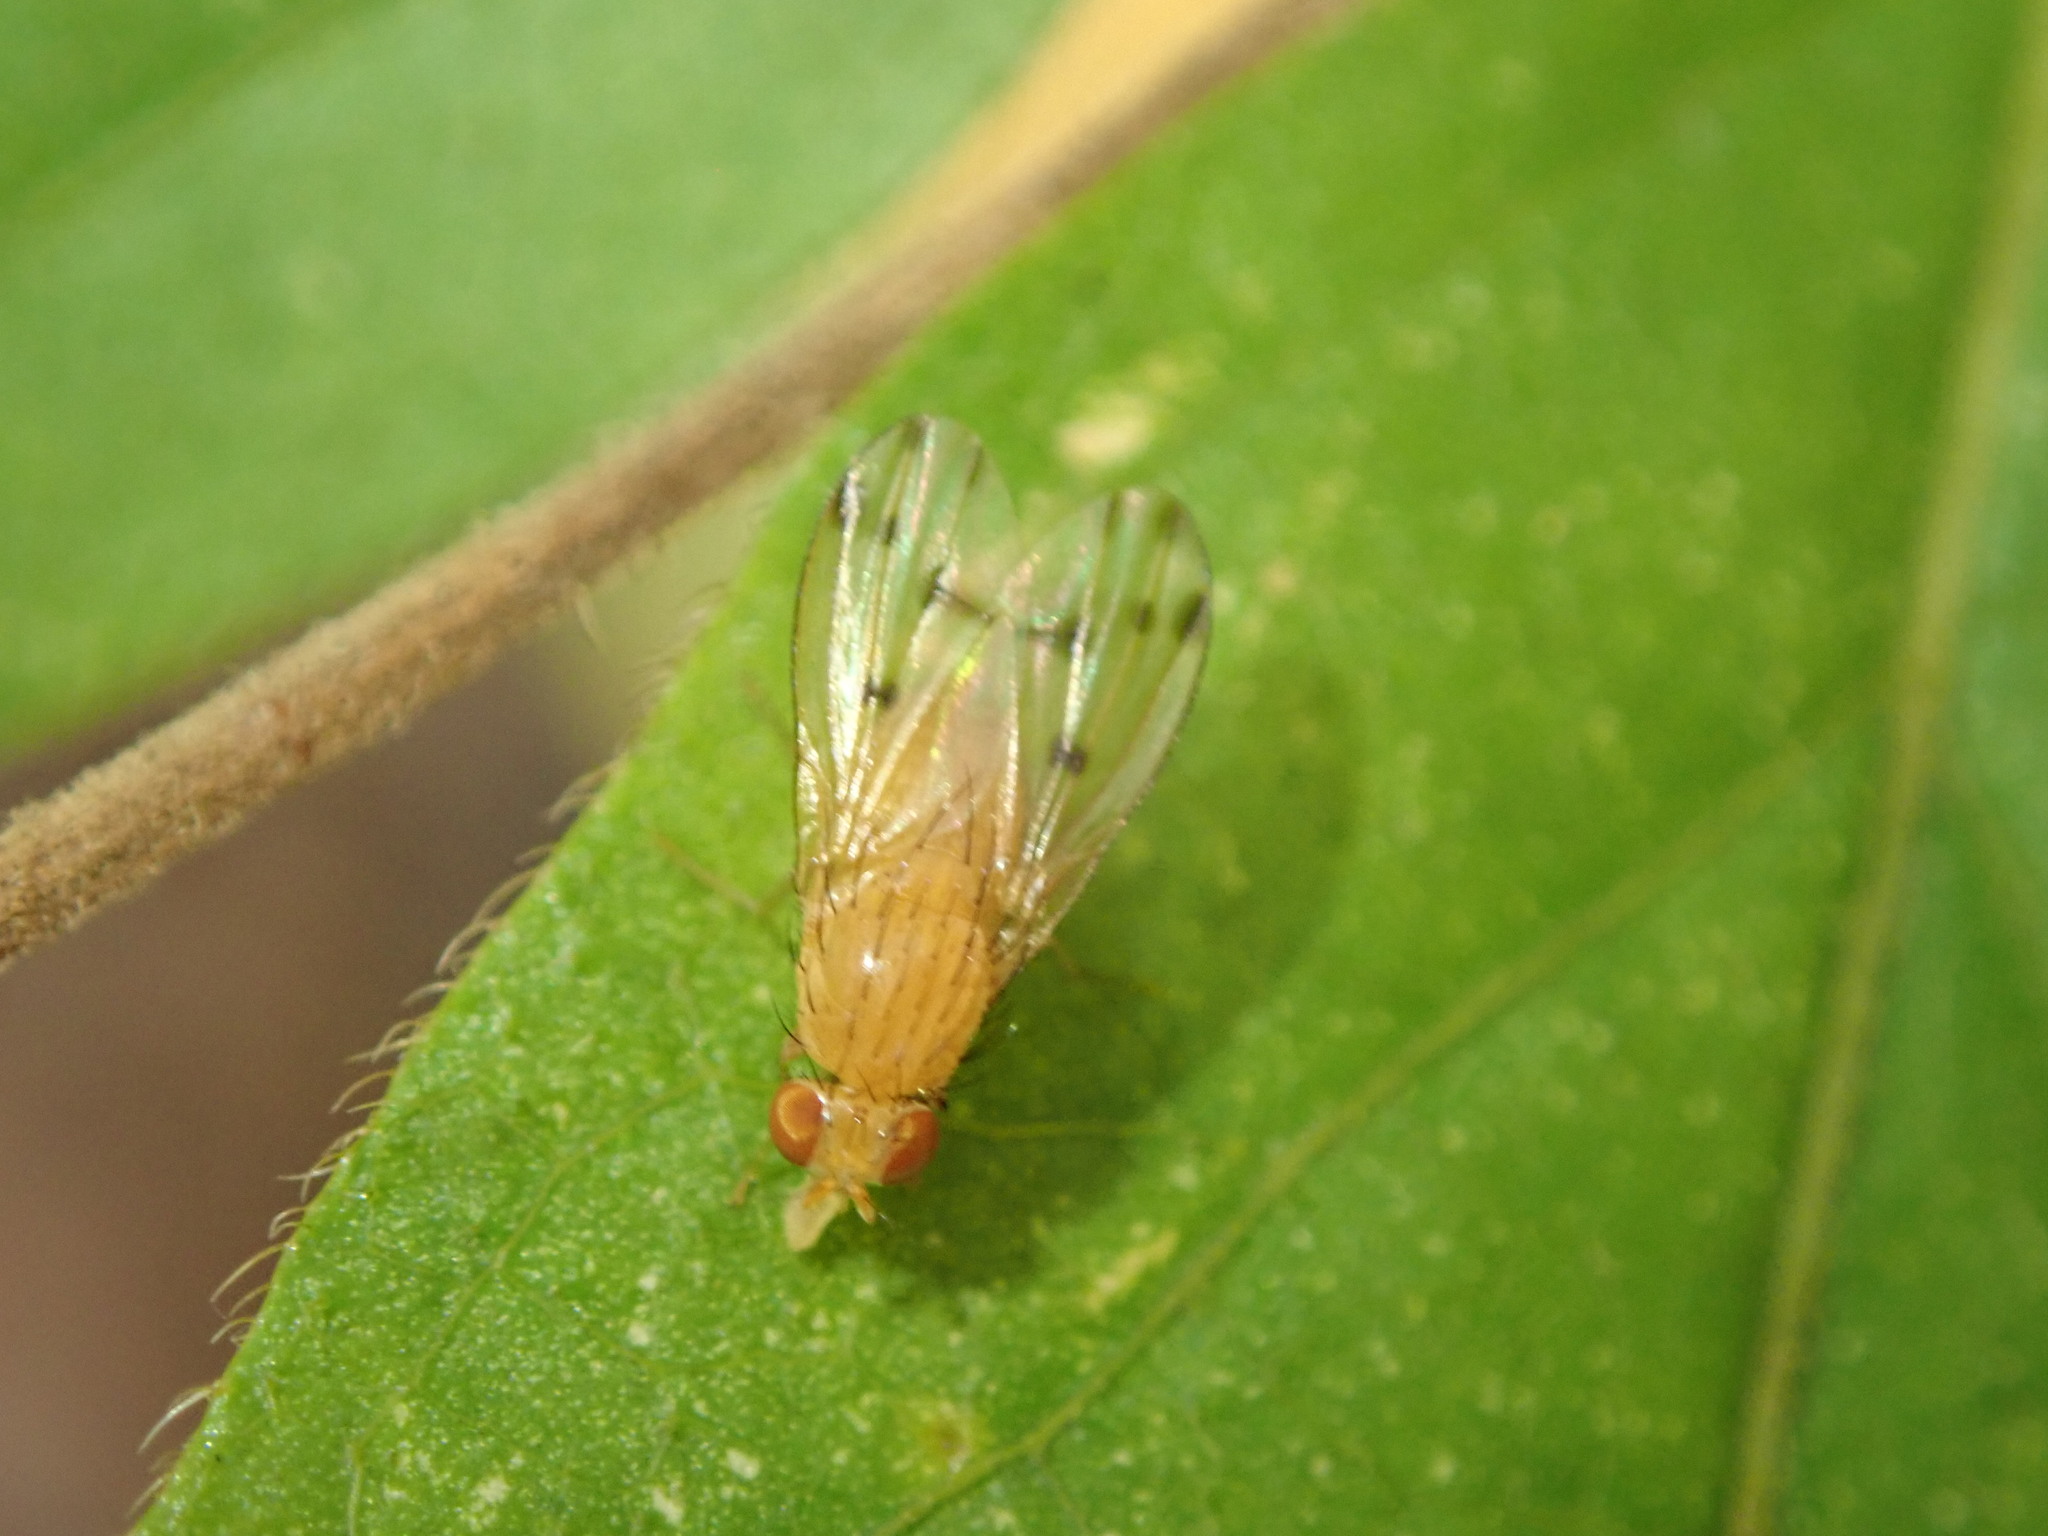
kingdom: Animalia
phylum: Arthropoda
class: Insecta
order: Diptera
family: Lauxaniidae
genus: Homoneura
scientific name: Homoneura
